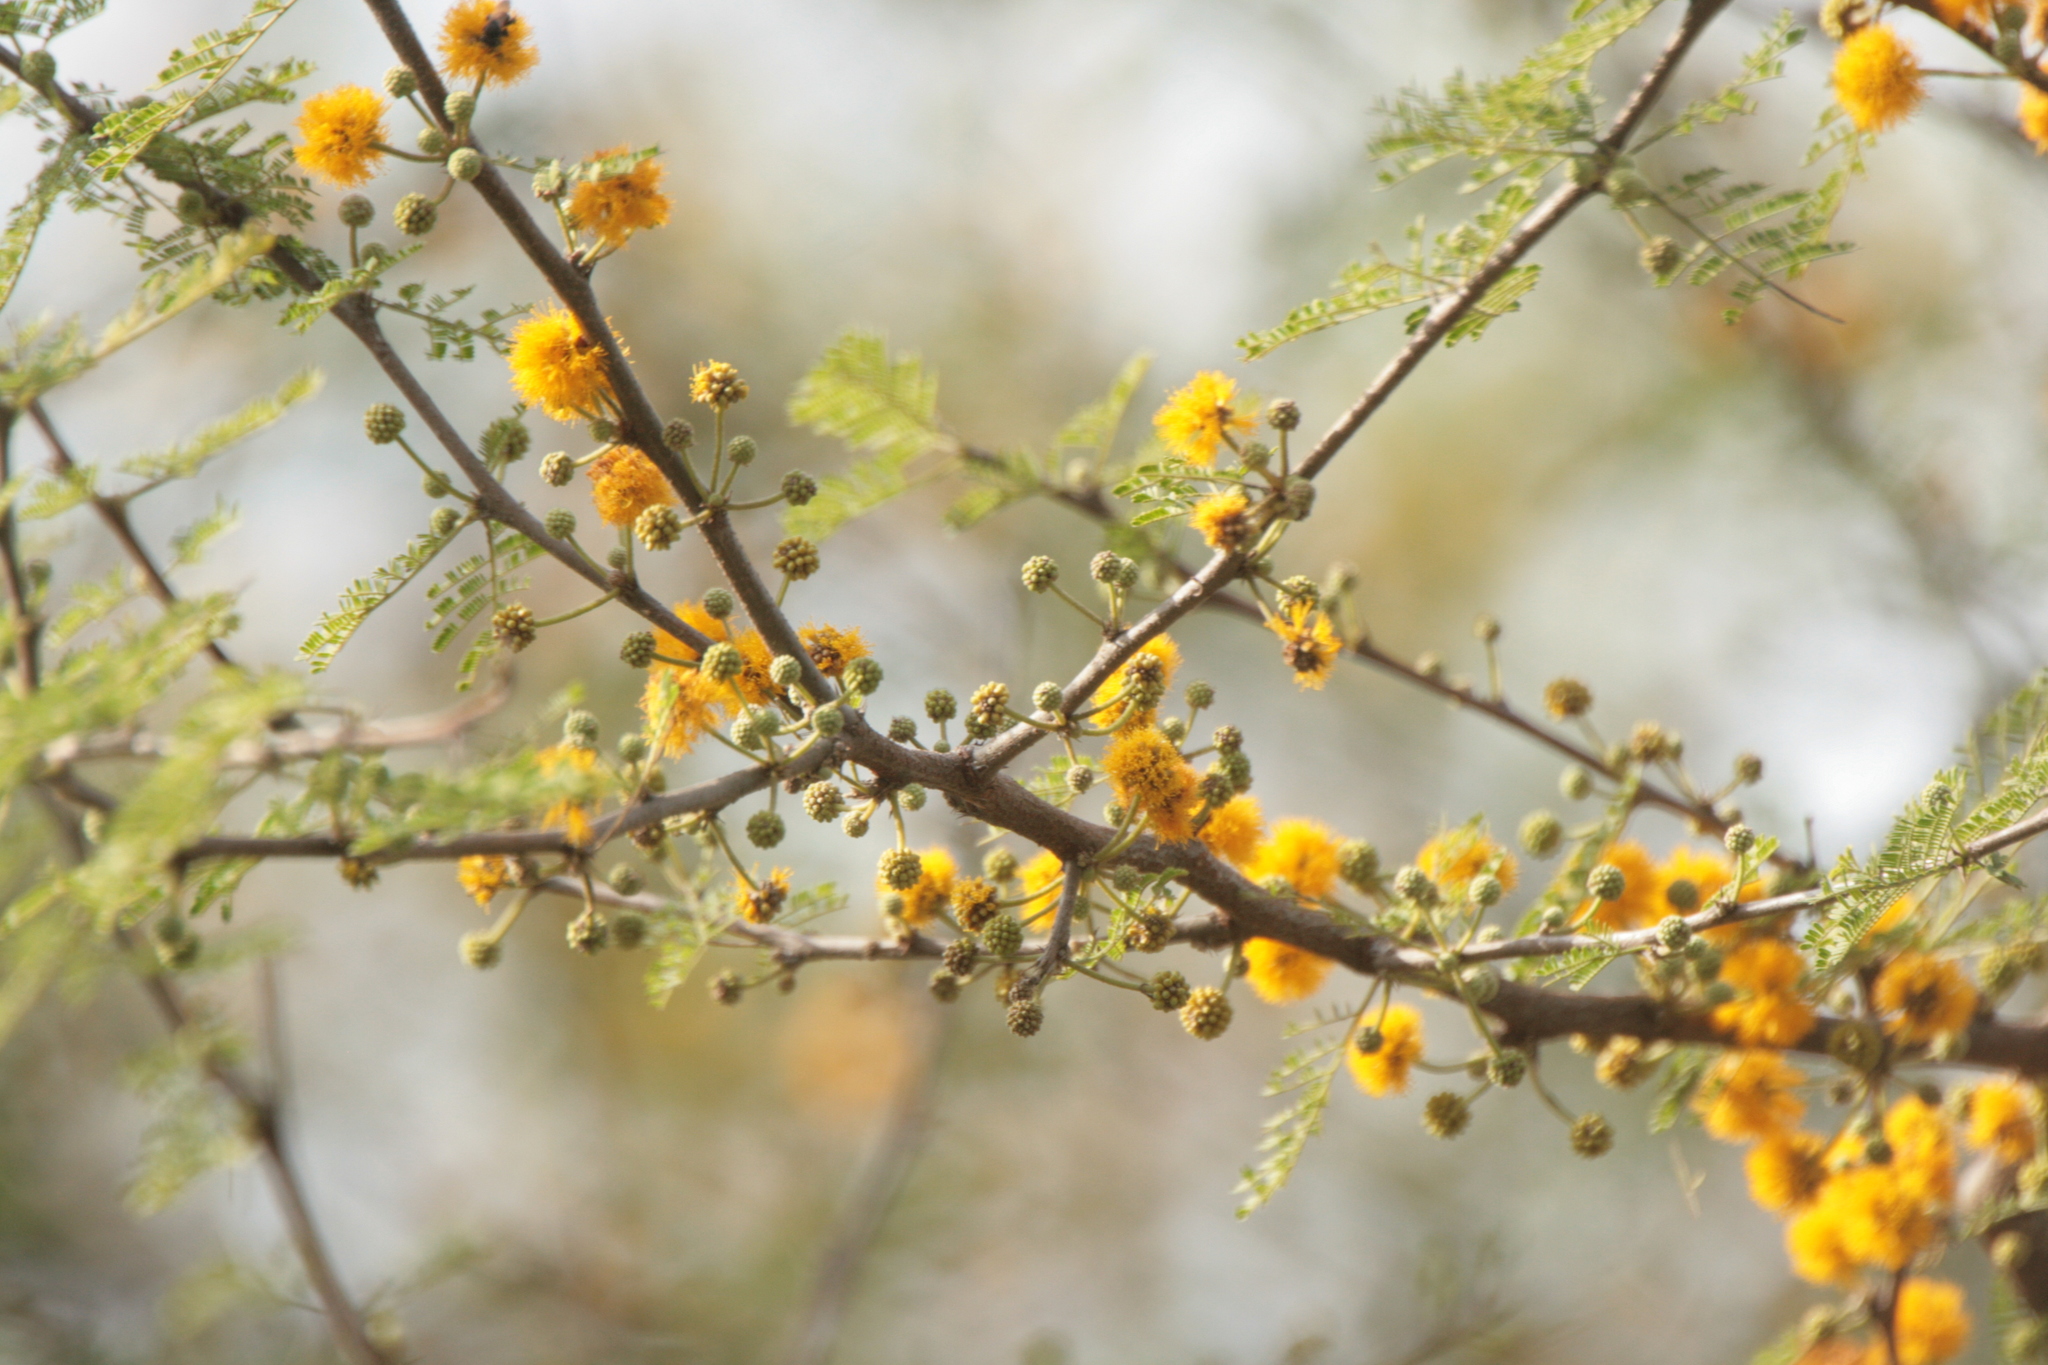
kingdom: Plantae
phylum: Tracheophyta
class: Magnoliopsida
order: Fabales
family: Fabaceae
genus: Vachellia
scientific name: Vachellia caven
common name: Roman cassie
